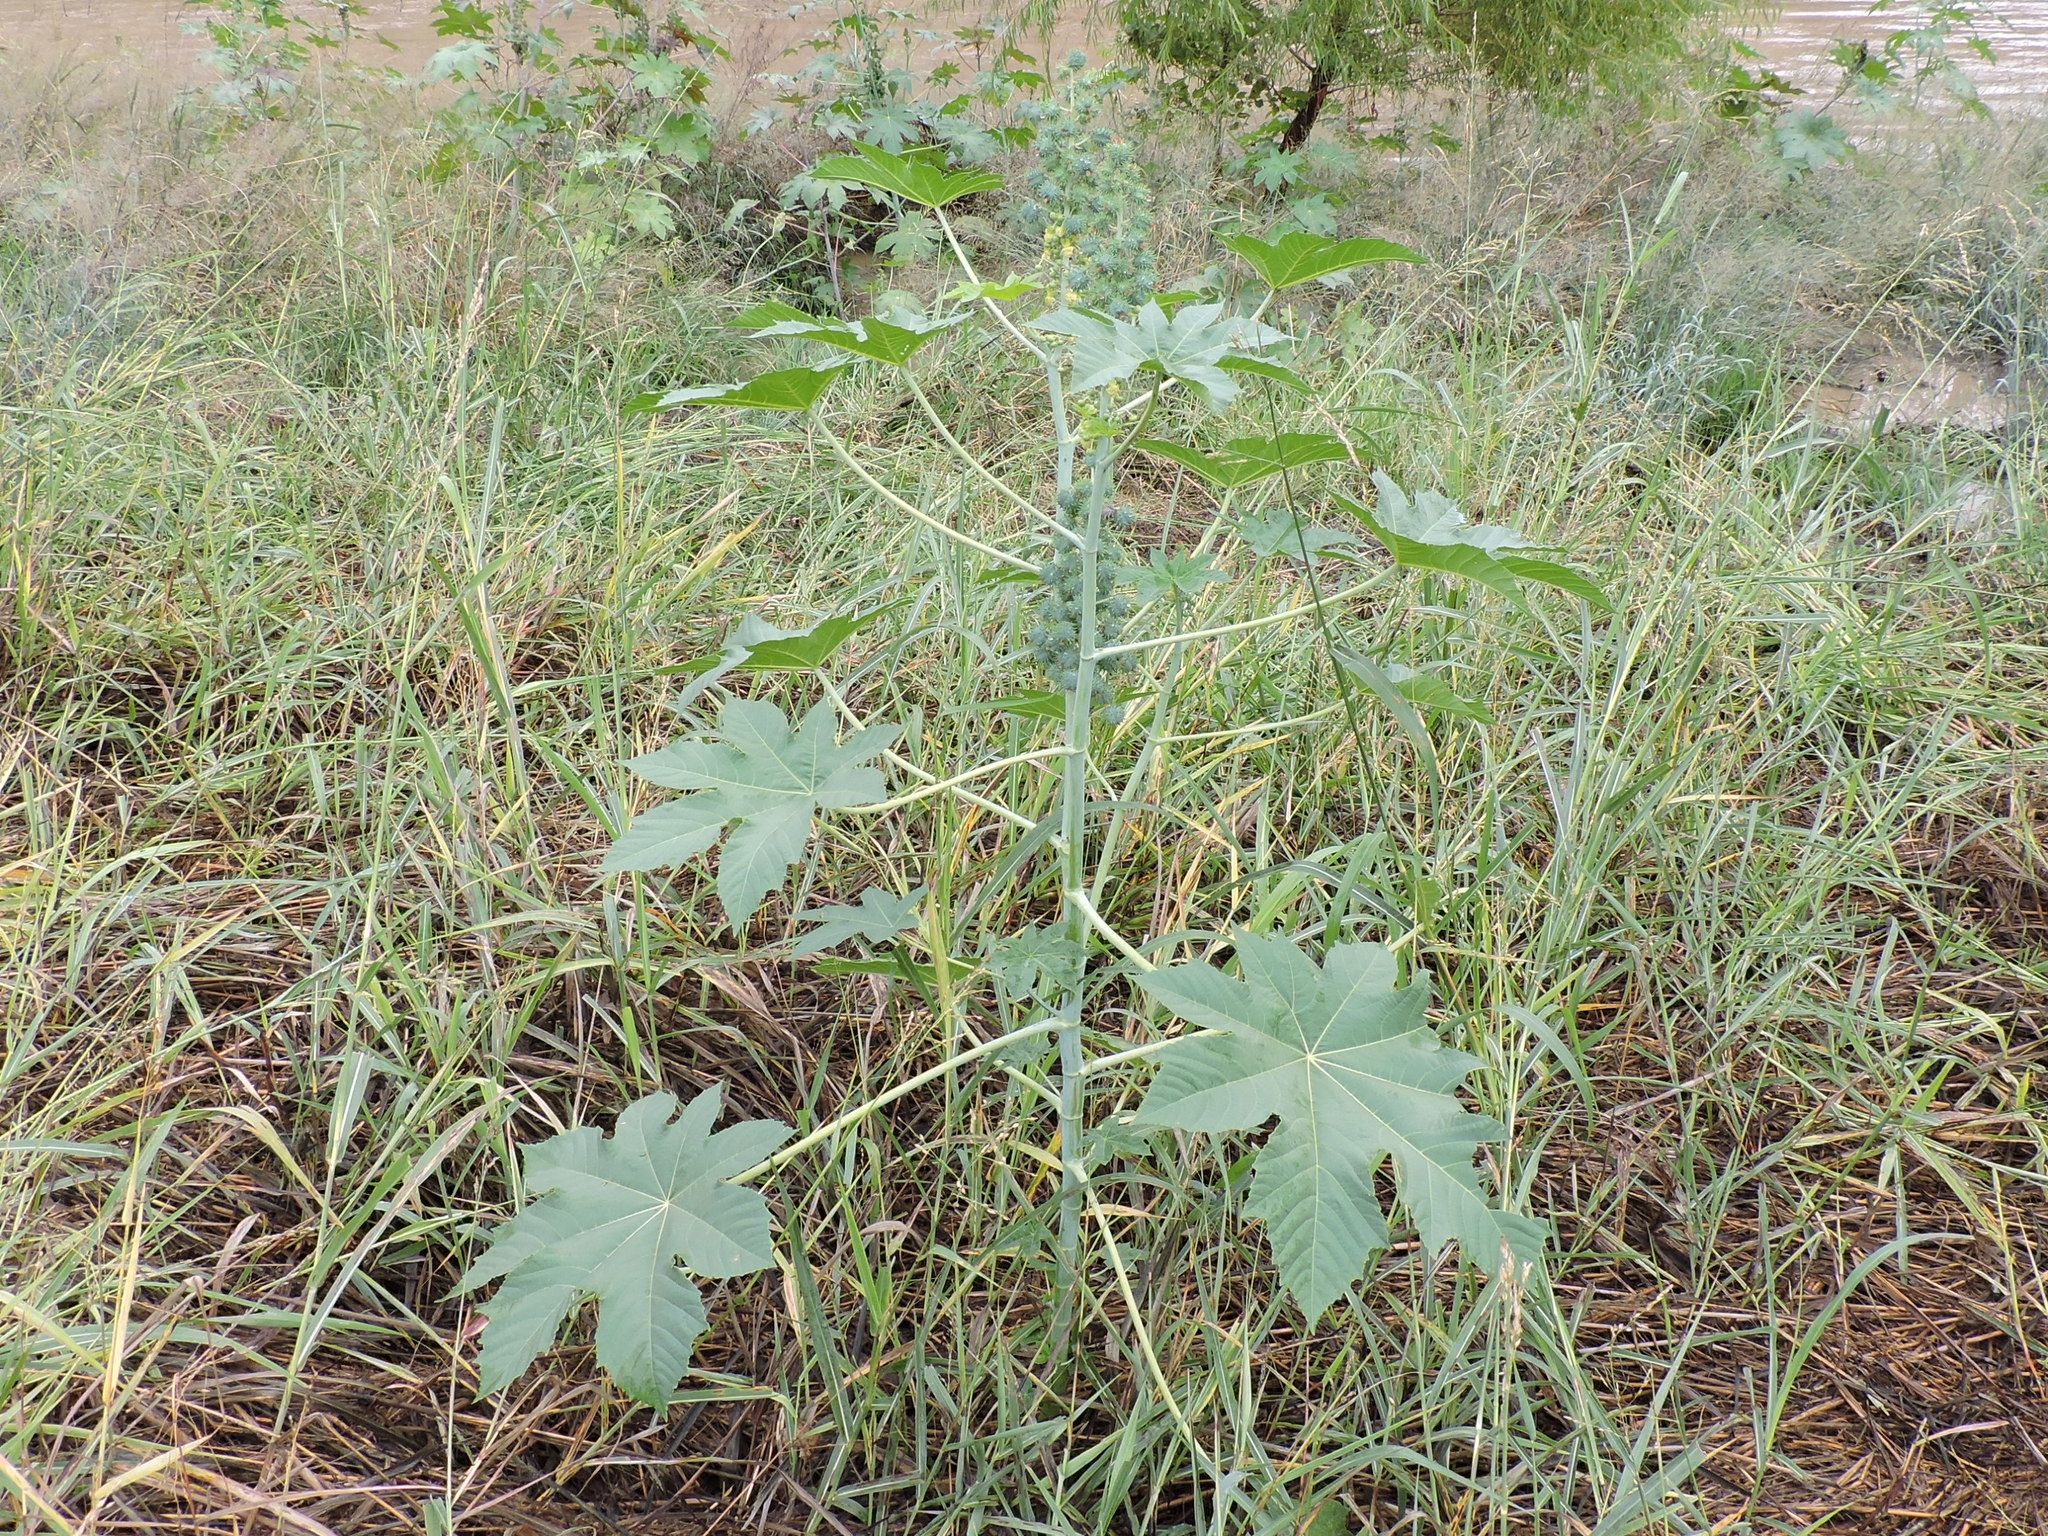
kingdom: Plantae
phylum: Tracheophyta
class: Magnoliopsida
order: Malpighiales
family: Euphorbiaceae
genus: Ricinus
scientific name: Ricinus communis
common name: Castor-oil-plant
